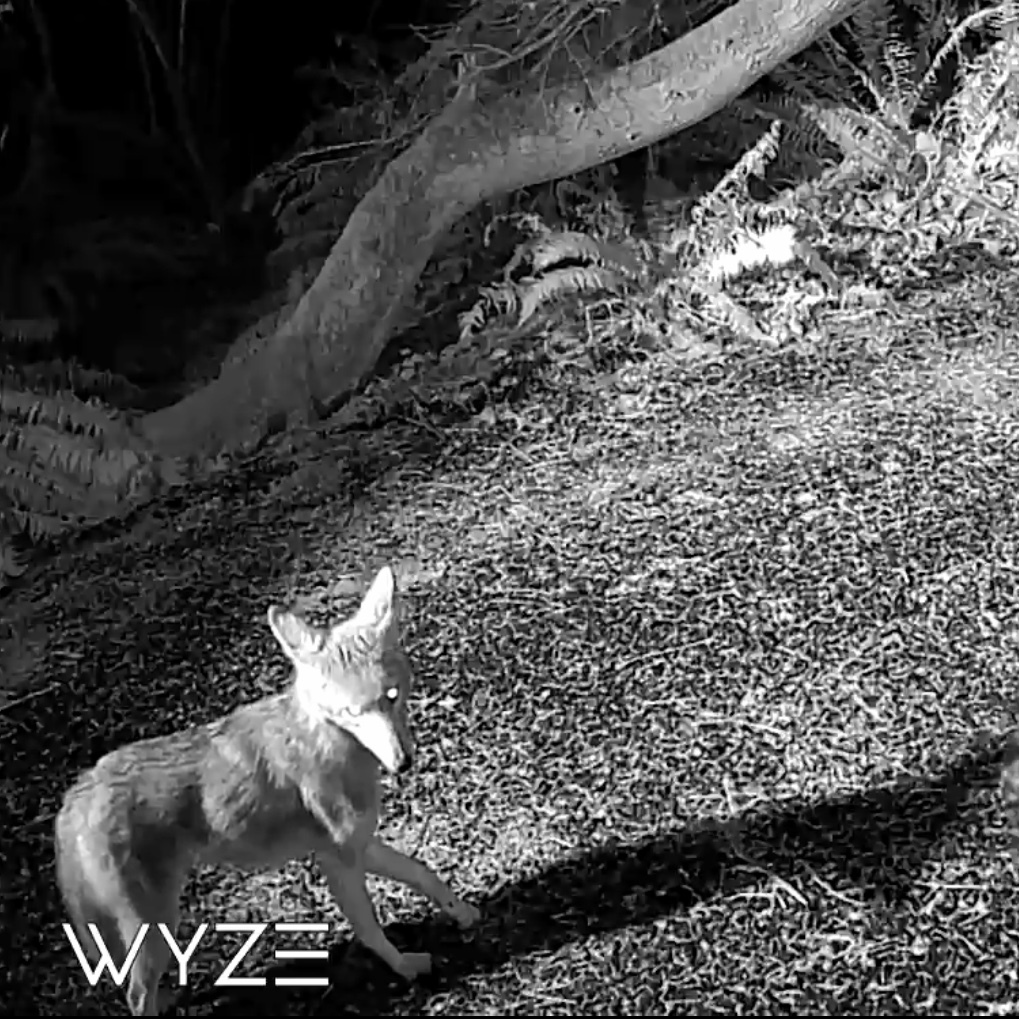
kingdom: Animalia
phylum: Chordata
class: Mammalia
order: Carnivora
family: Canidae
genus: Canis
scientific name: Canis latrans
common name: Coyote
